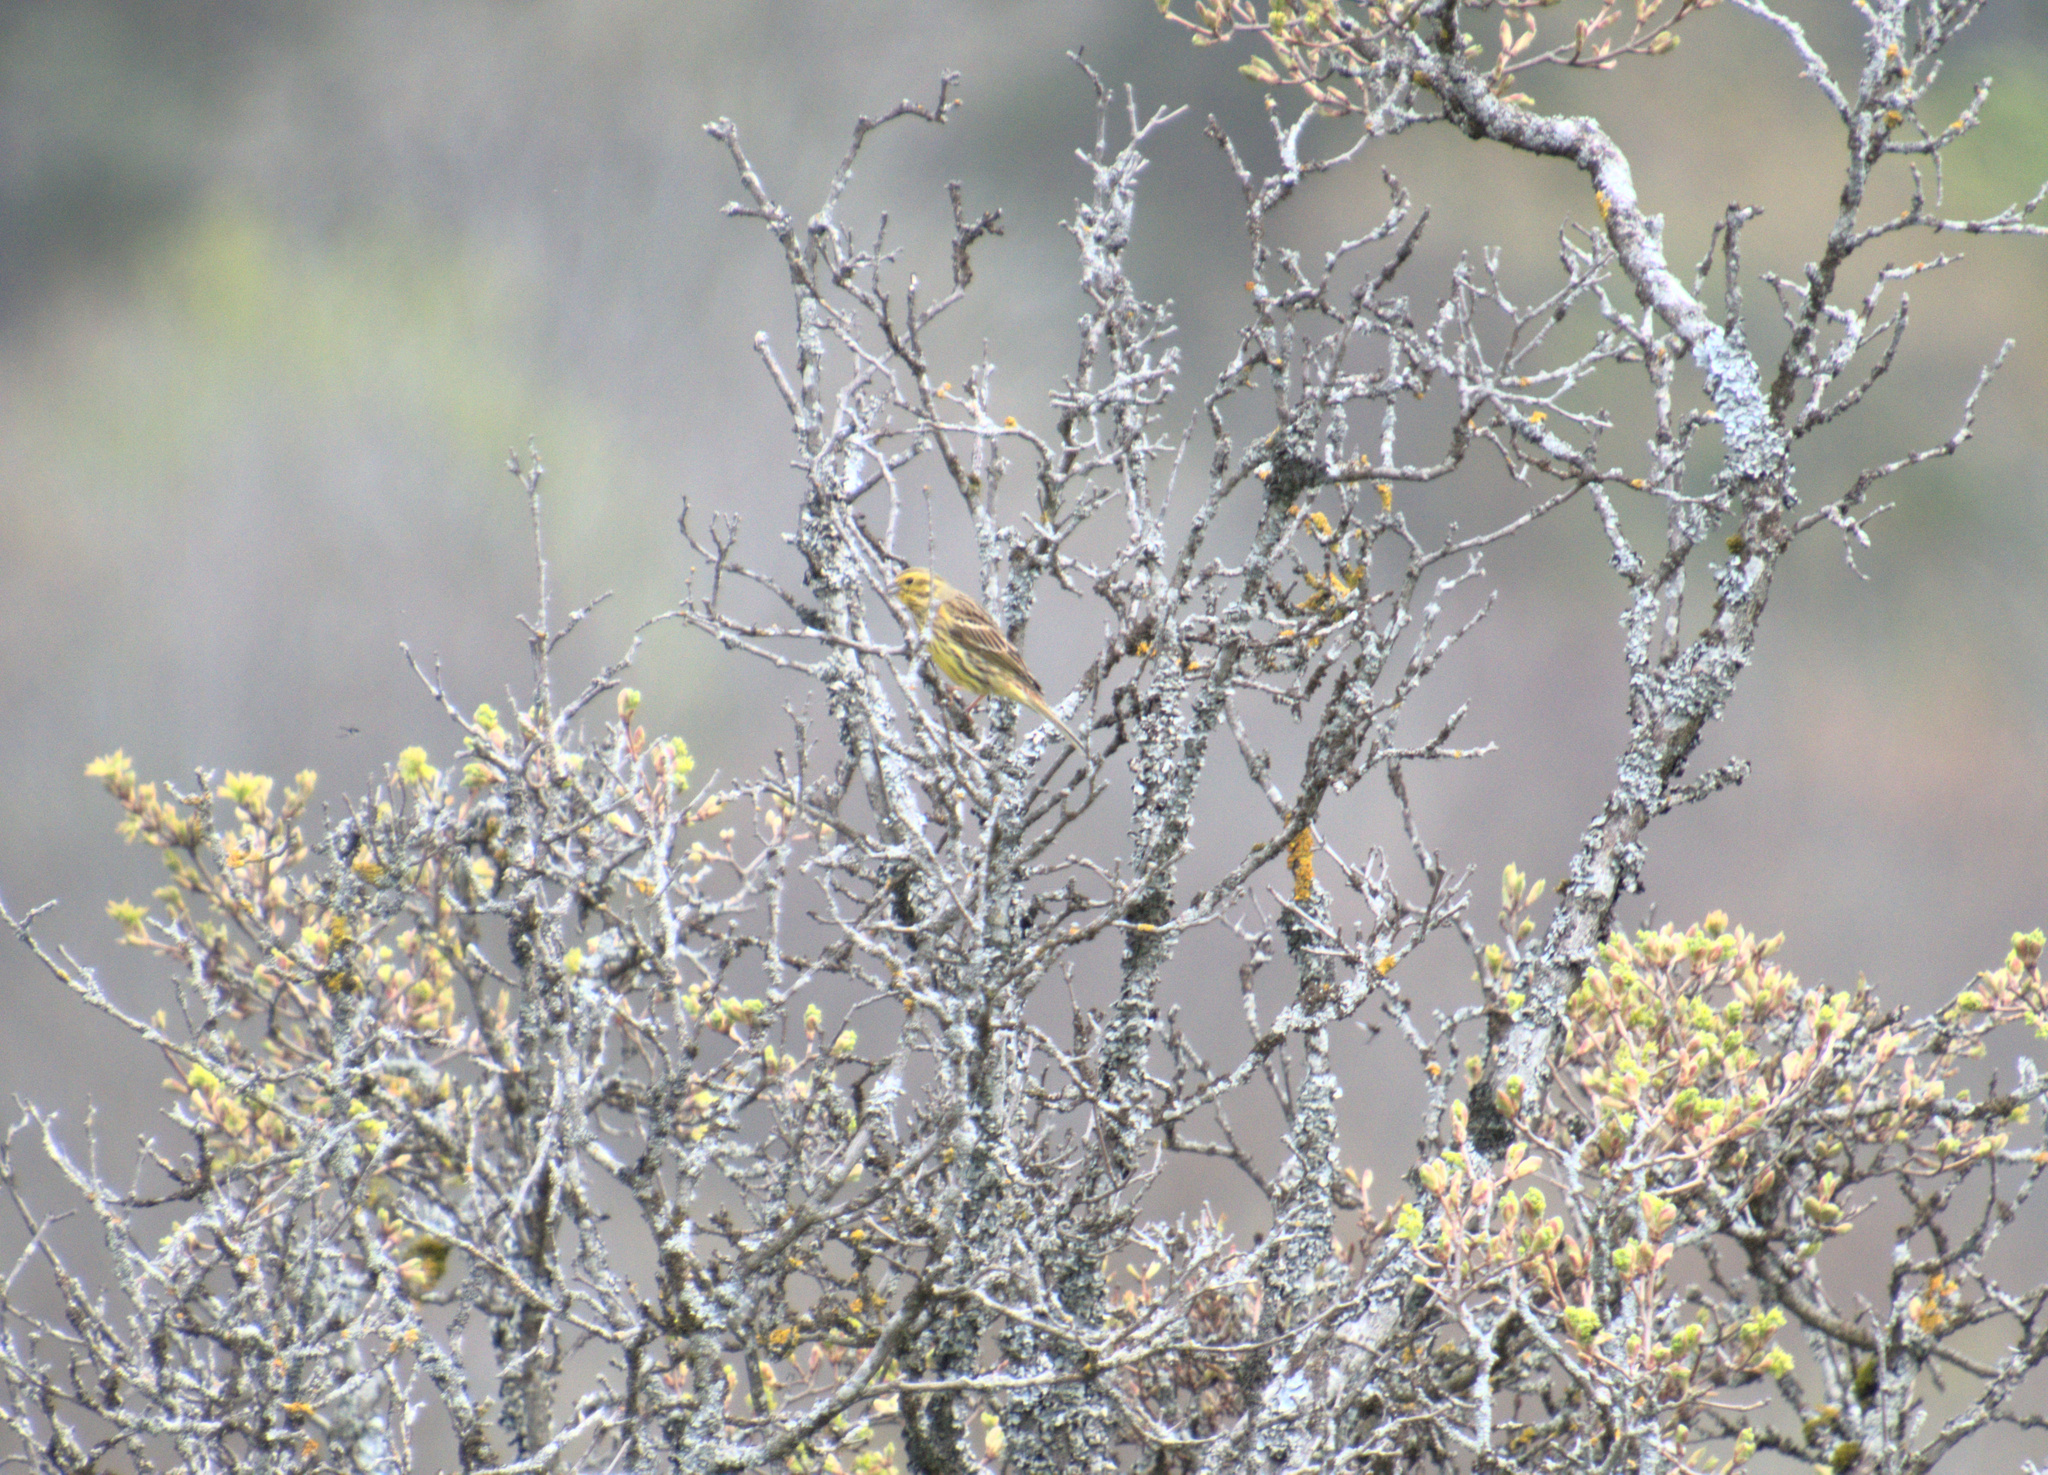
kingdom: Animalia
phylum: Chordata
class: Aves
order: Passeriformes
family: Emberizidae
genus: Emberiza
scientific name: Emberiza citrinella
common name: Yellowhammer
